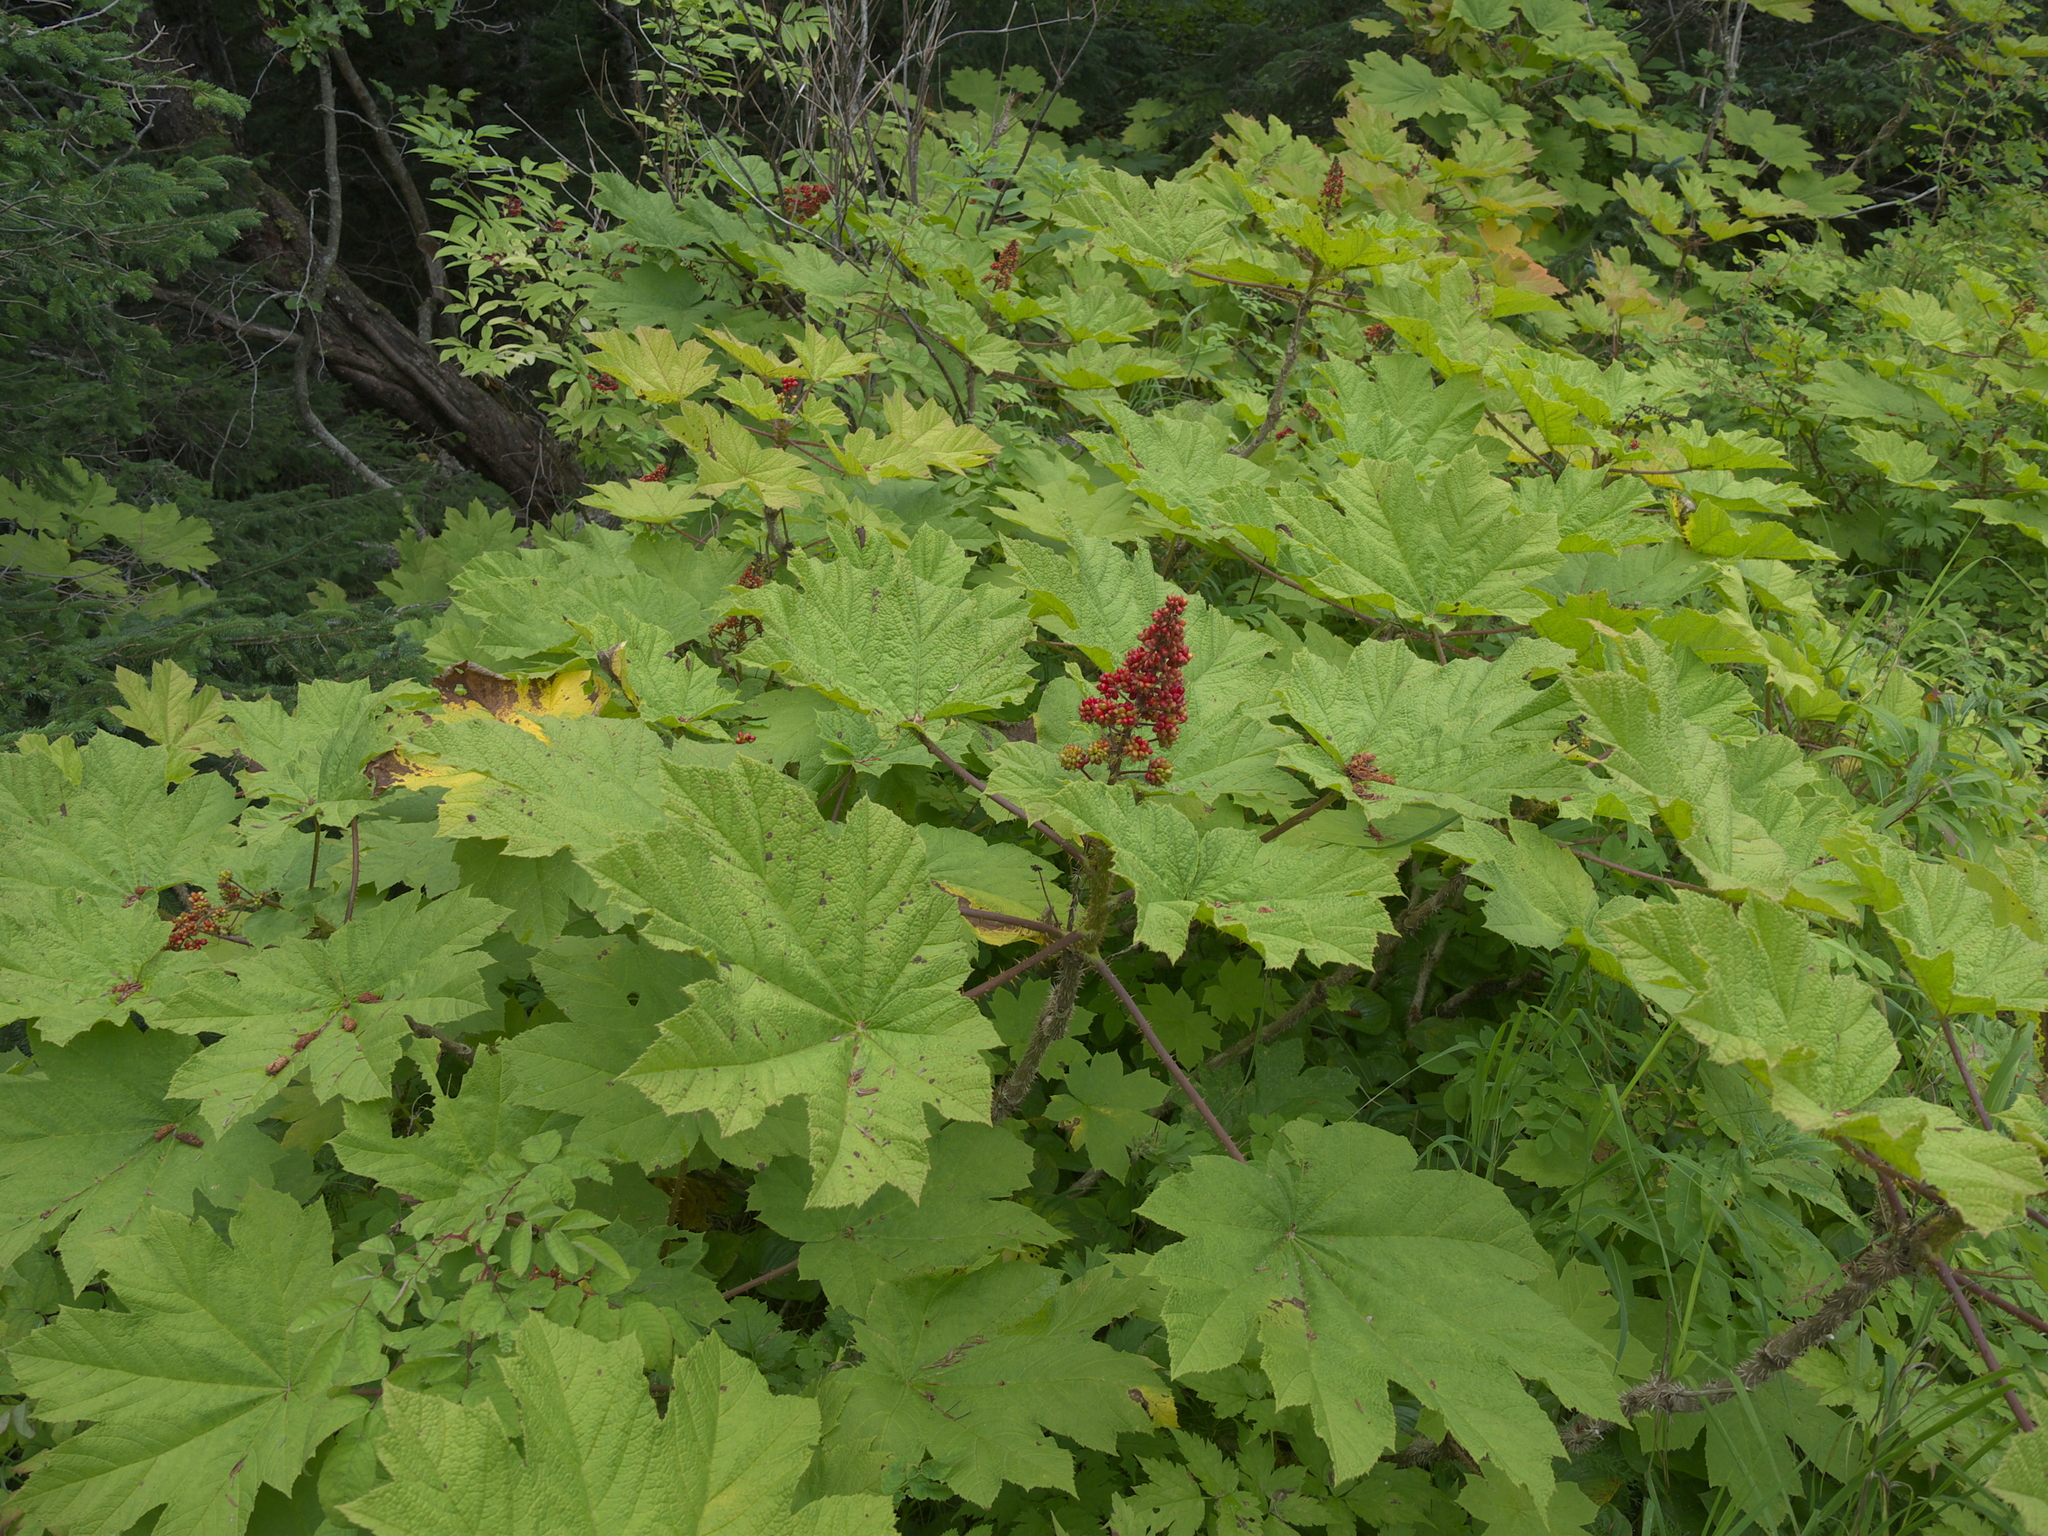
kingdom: Plantae
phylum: Tracheophyta
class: Magnoliopsida
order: Apiales
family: Araliaceae
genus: Oplopanax
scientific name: Oplopanax horridus
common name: Devil's walking-stick
